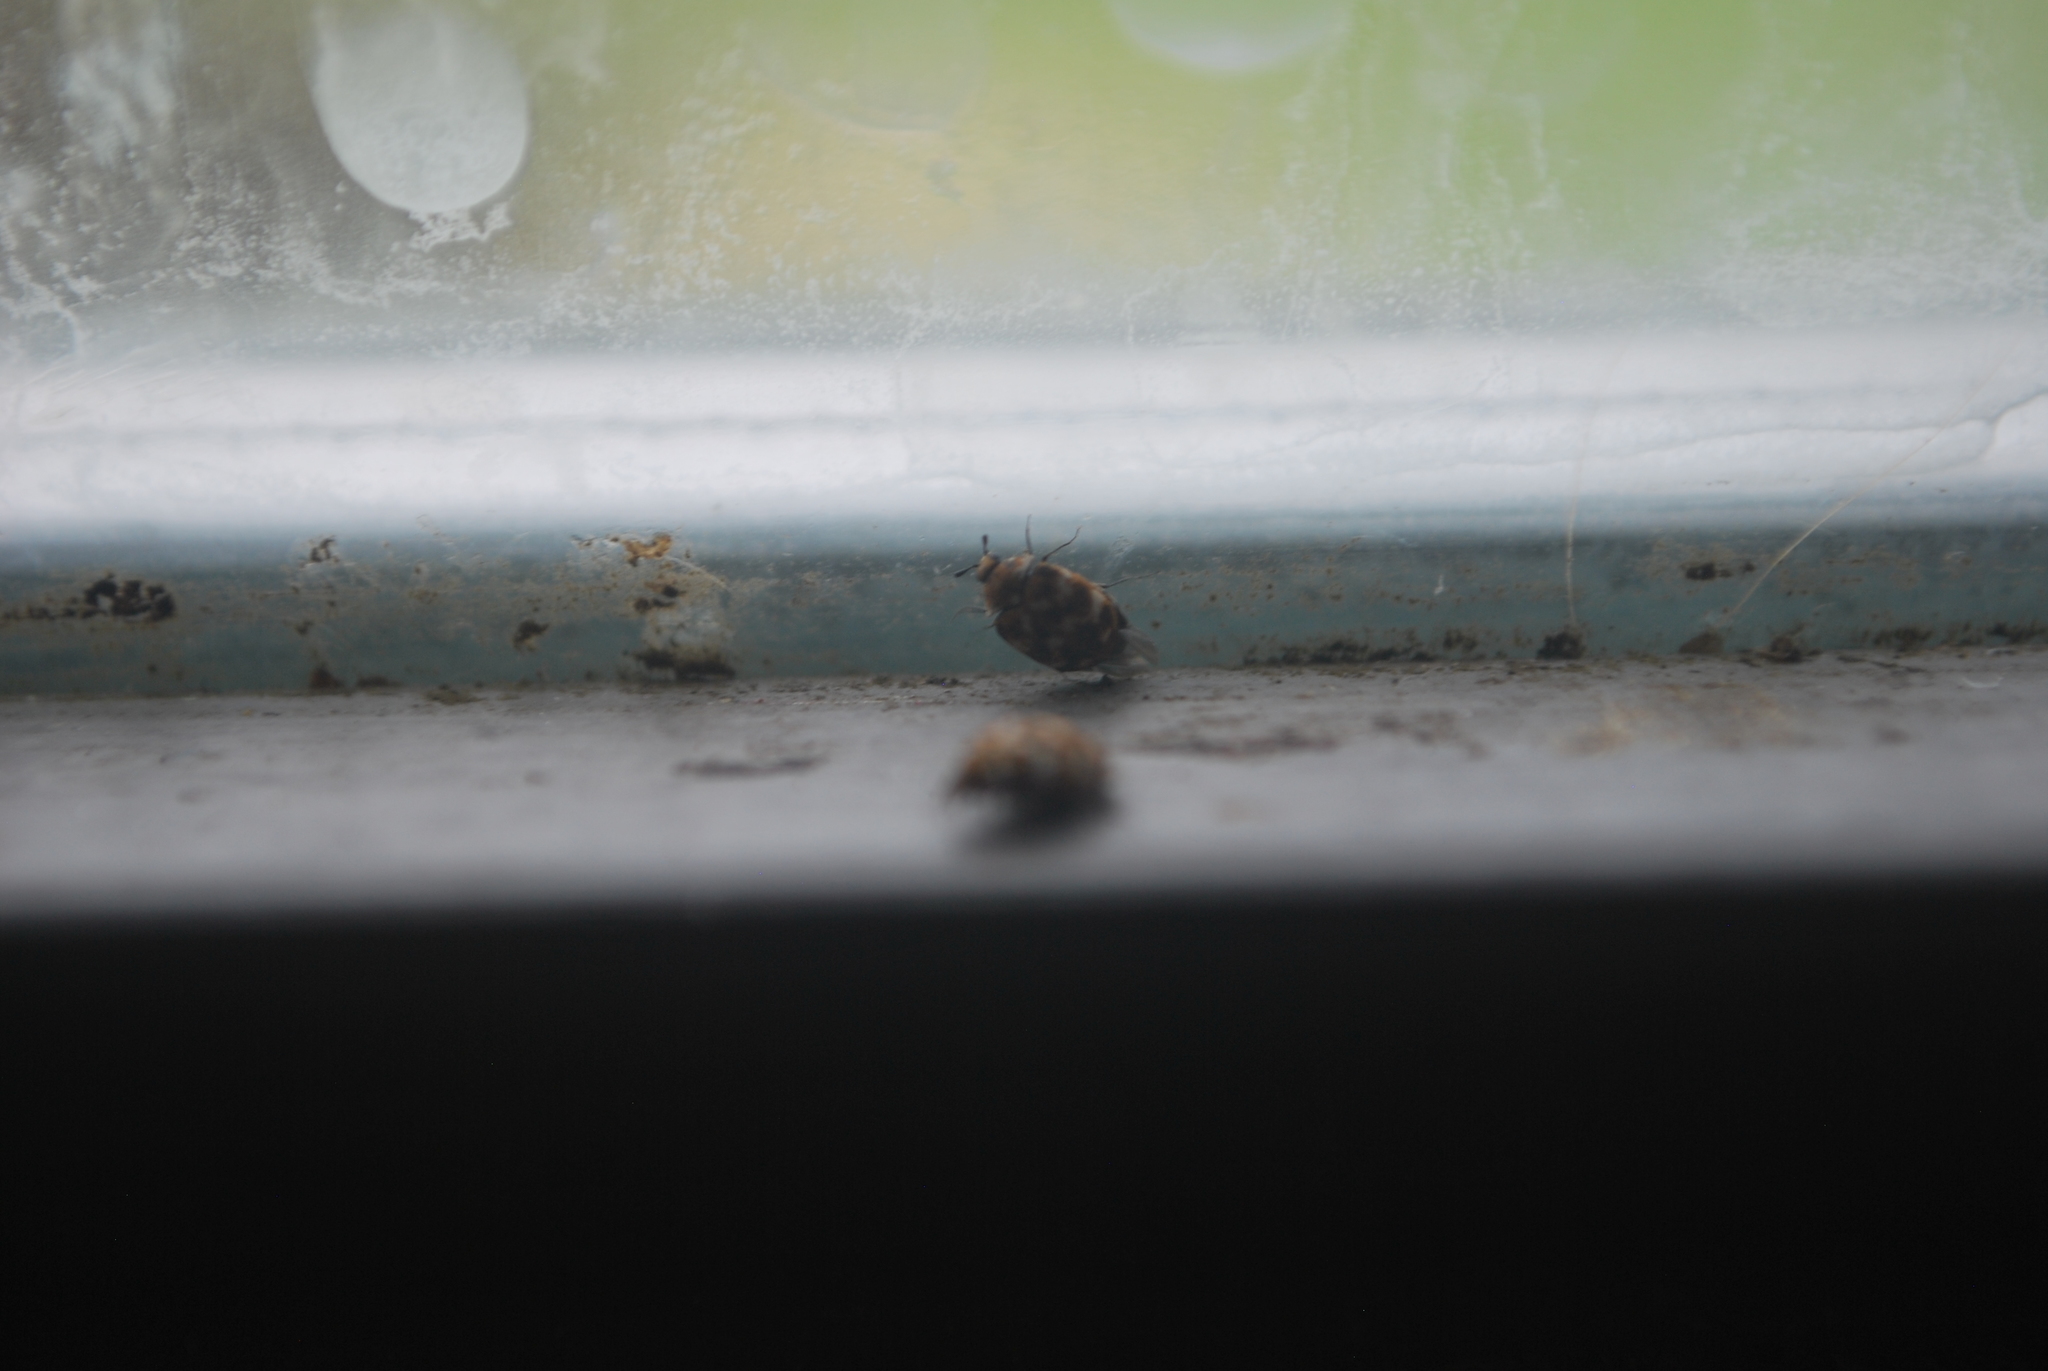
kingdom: Animalia
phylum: Arthropoda
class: Insecta
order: Coleoptera
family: Dermestidae
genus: Anthrenus
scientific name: Anthrenus verbasci
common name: Varied carpet beetle
